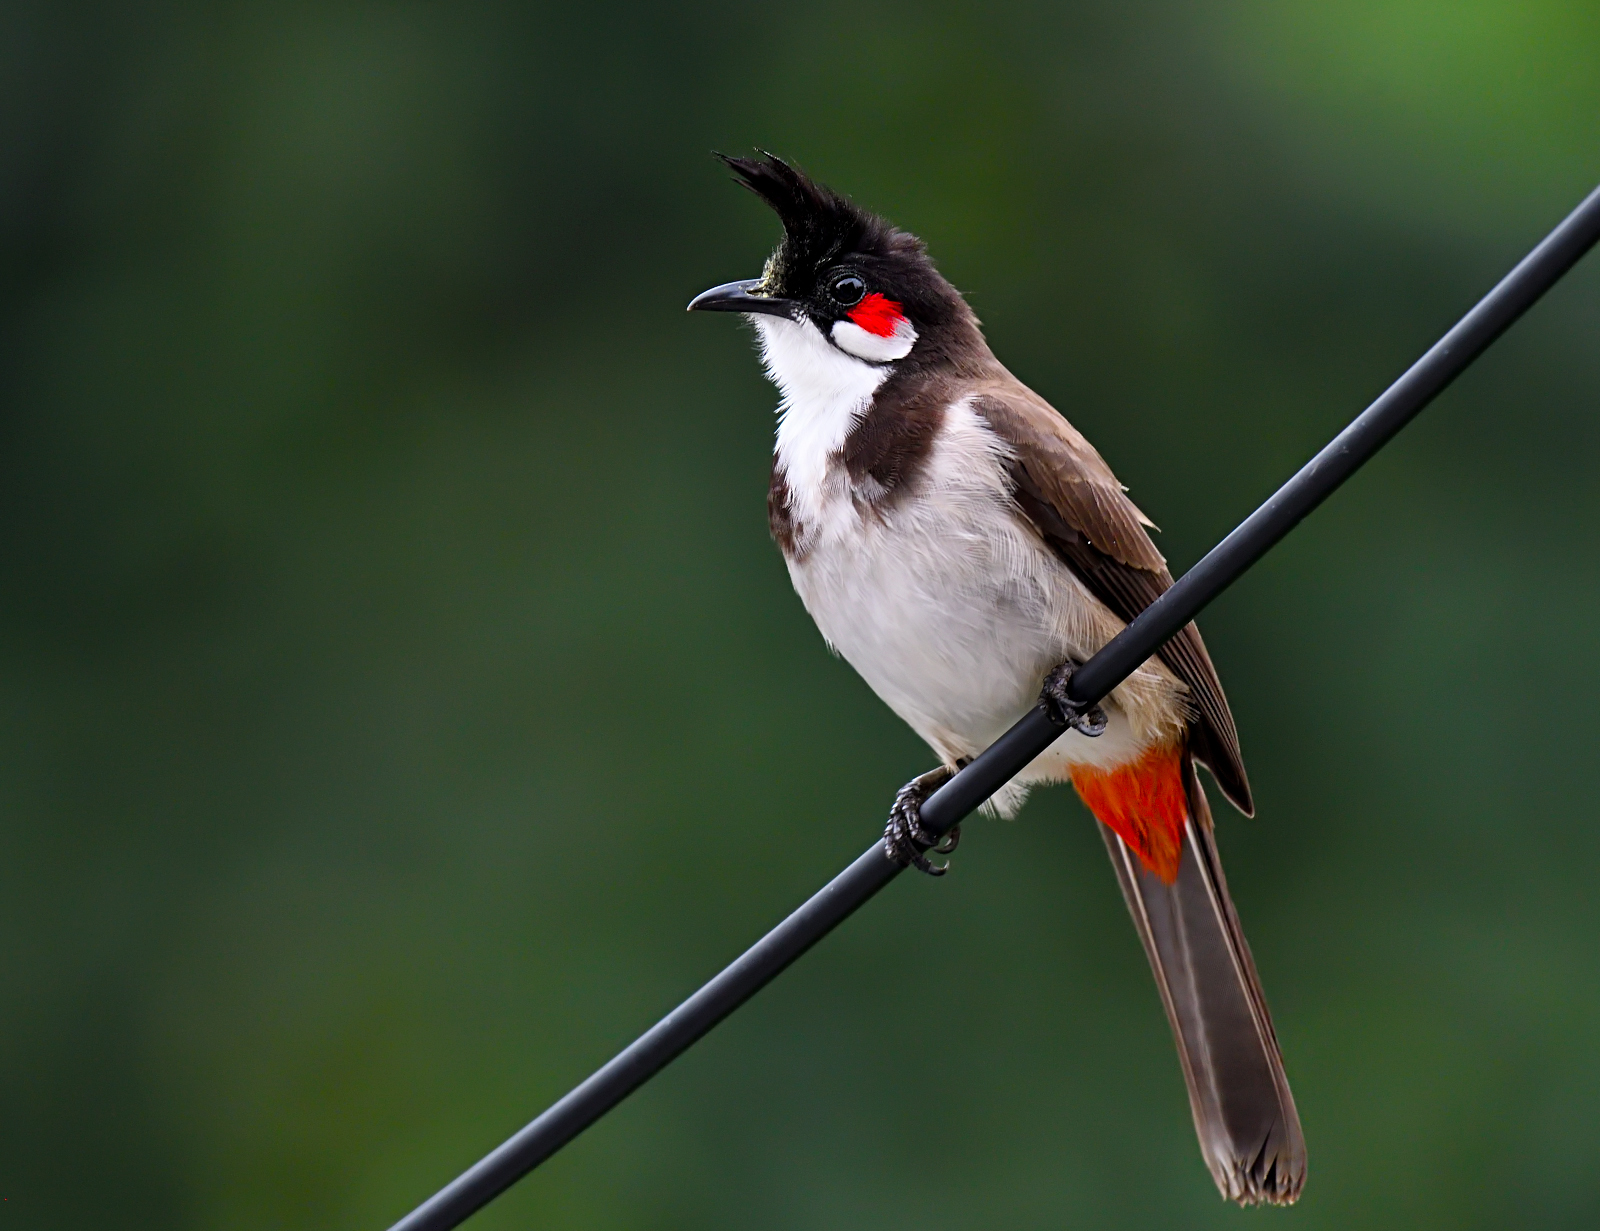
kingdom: Animalia
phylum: Chordata
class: Aves
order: Passeriformes
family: Pycnonotidae
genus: Pycnonotus
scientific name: Pycnonotus jocosus
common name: Red-whiskered bulbul
